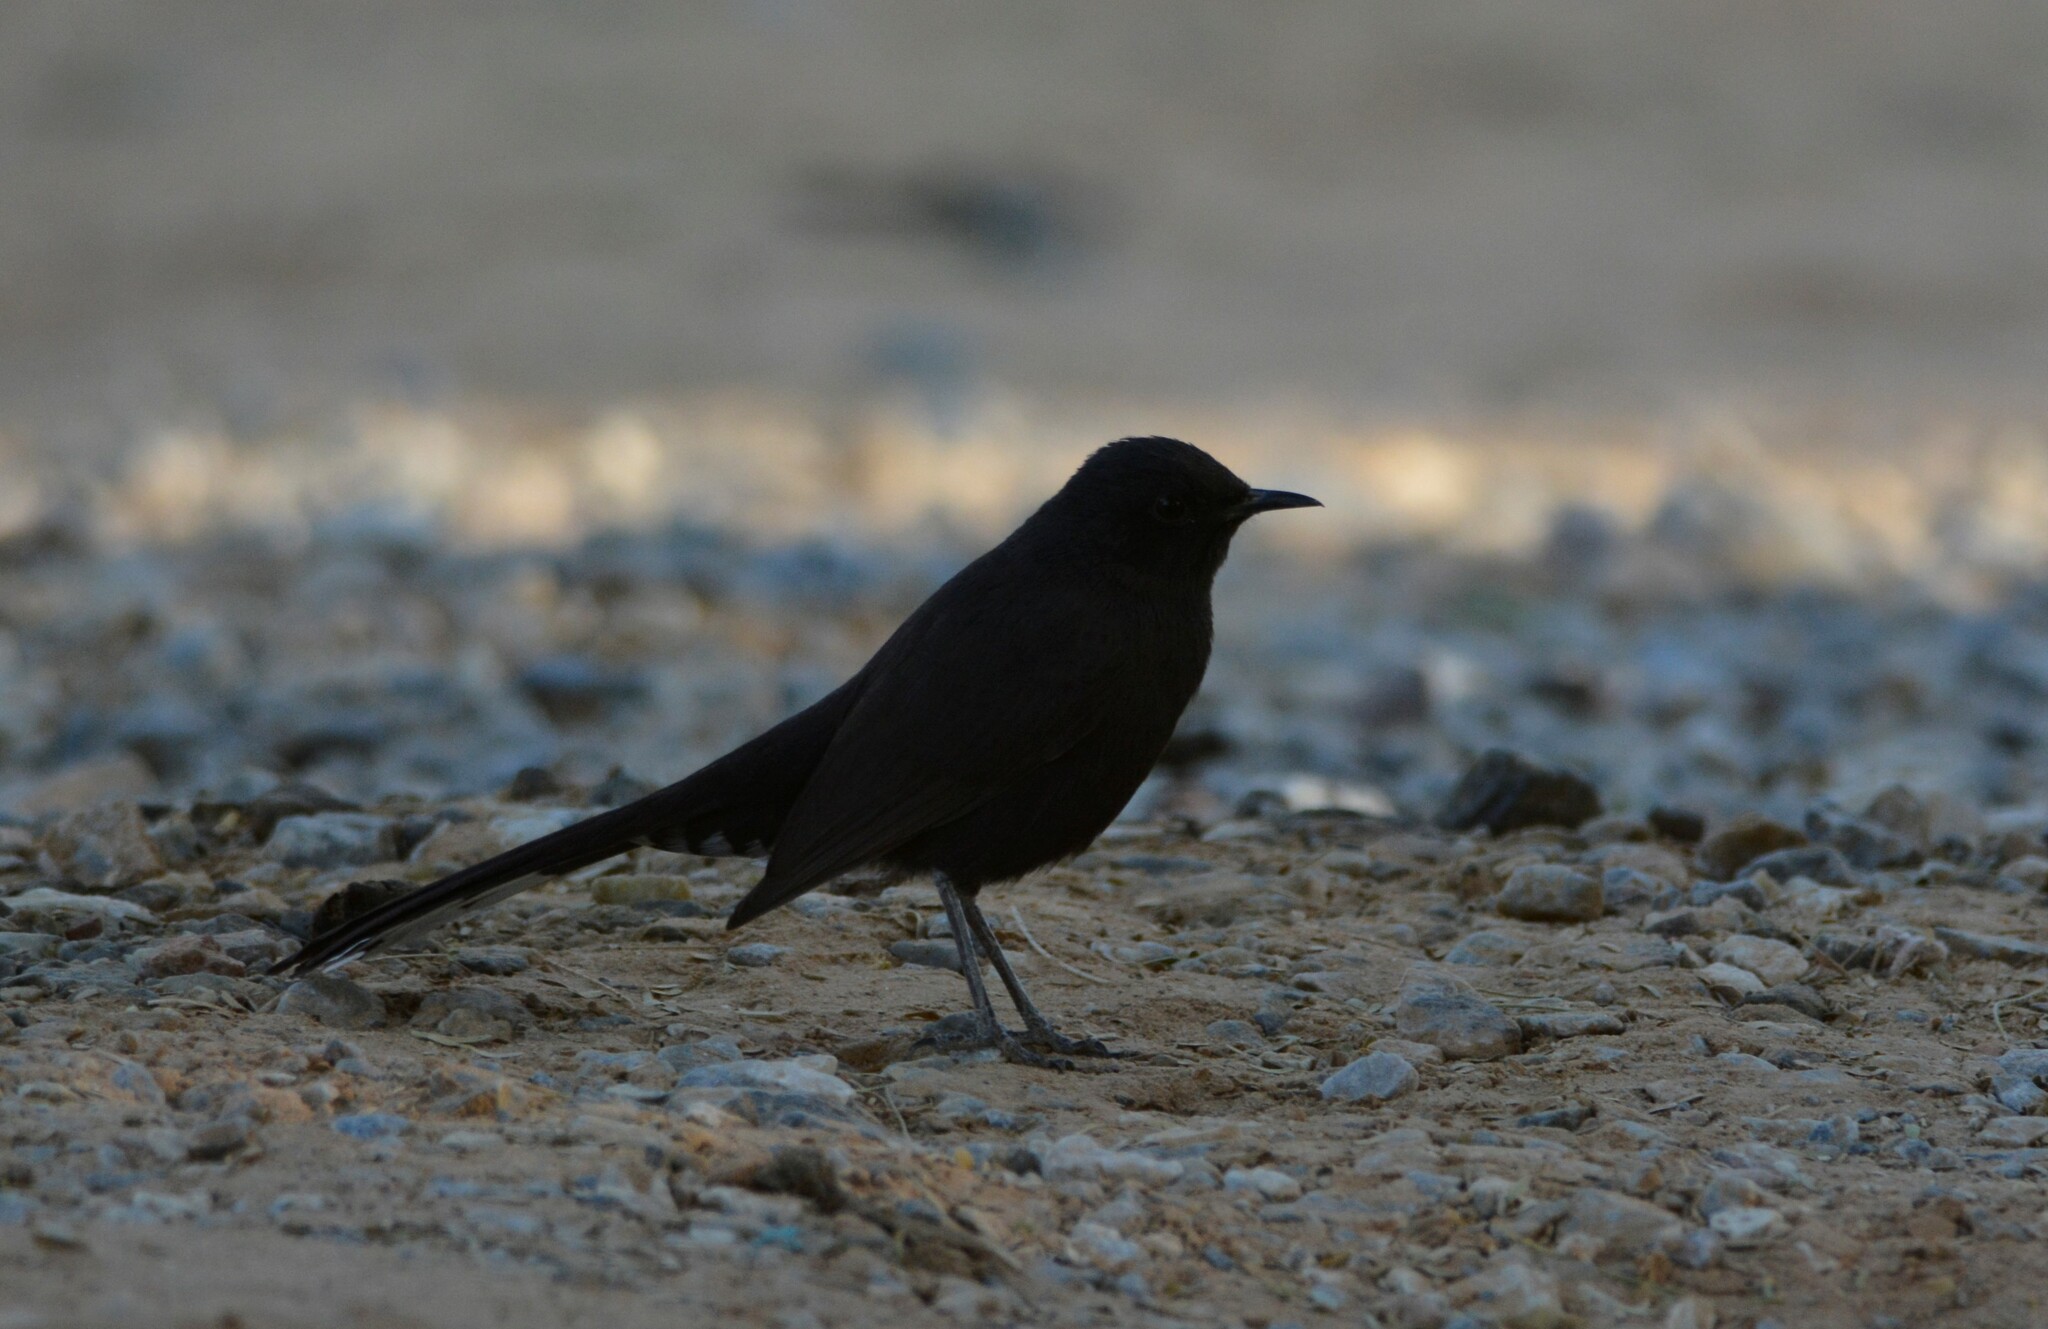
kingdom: Animalia
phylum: Chordata
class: Aves
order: Passeriformes
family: Muscicapidae
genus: Cercotrichas
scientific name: Cercotrichas podobe
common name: Black scrub robin
